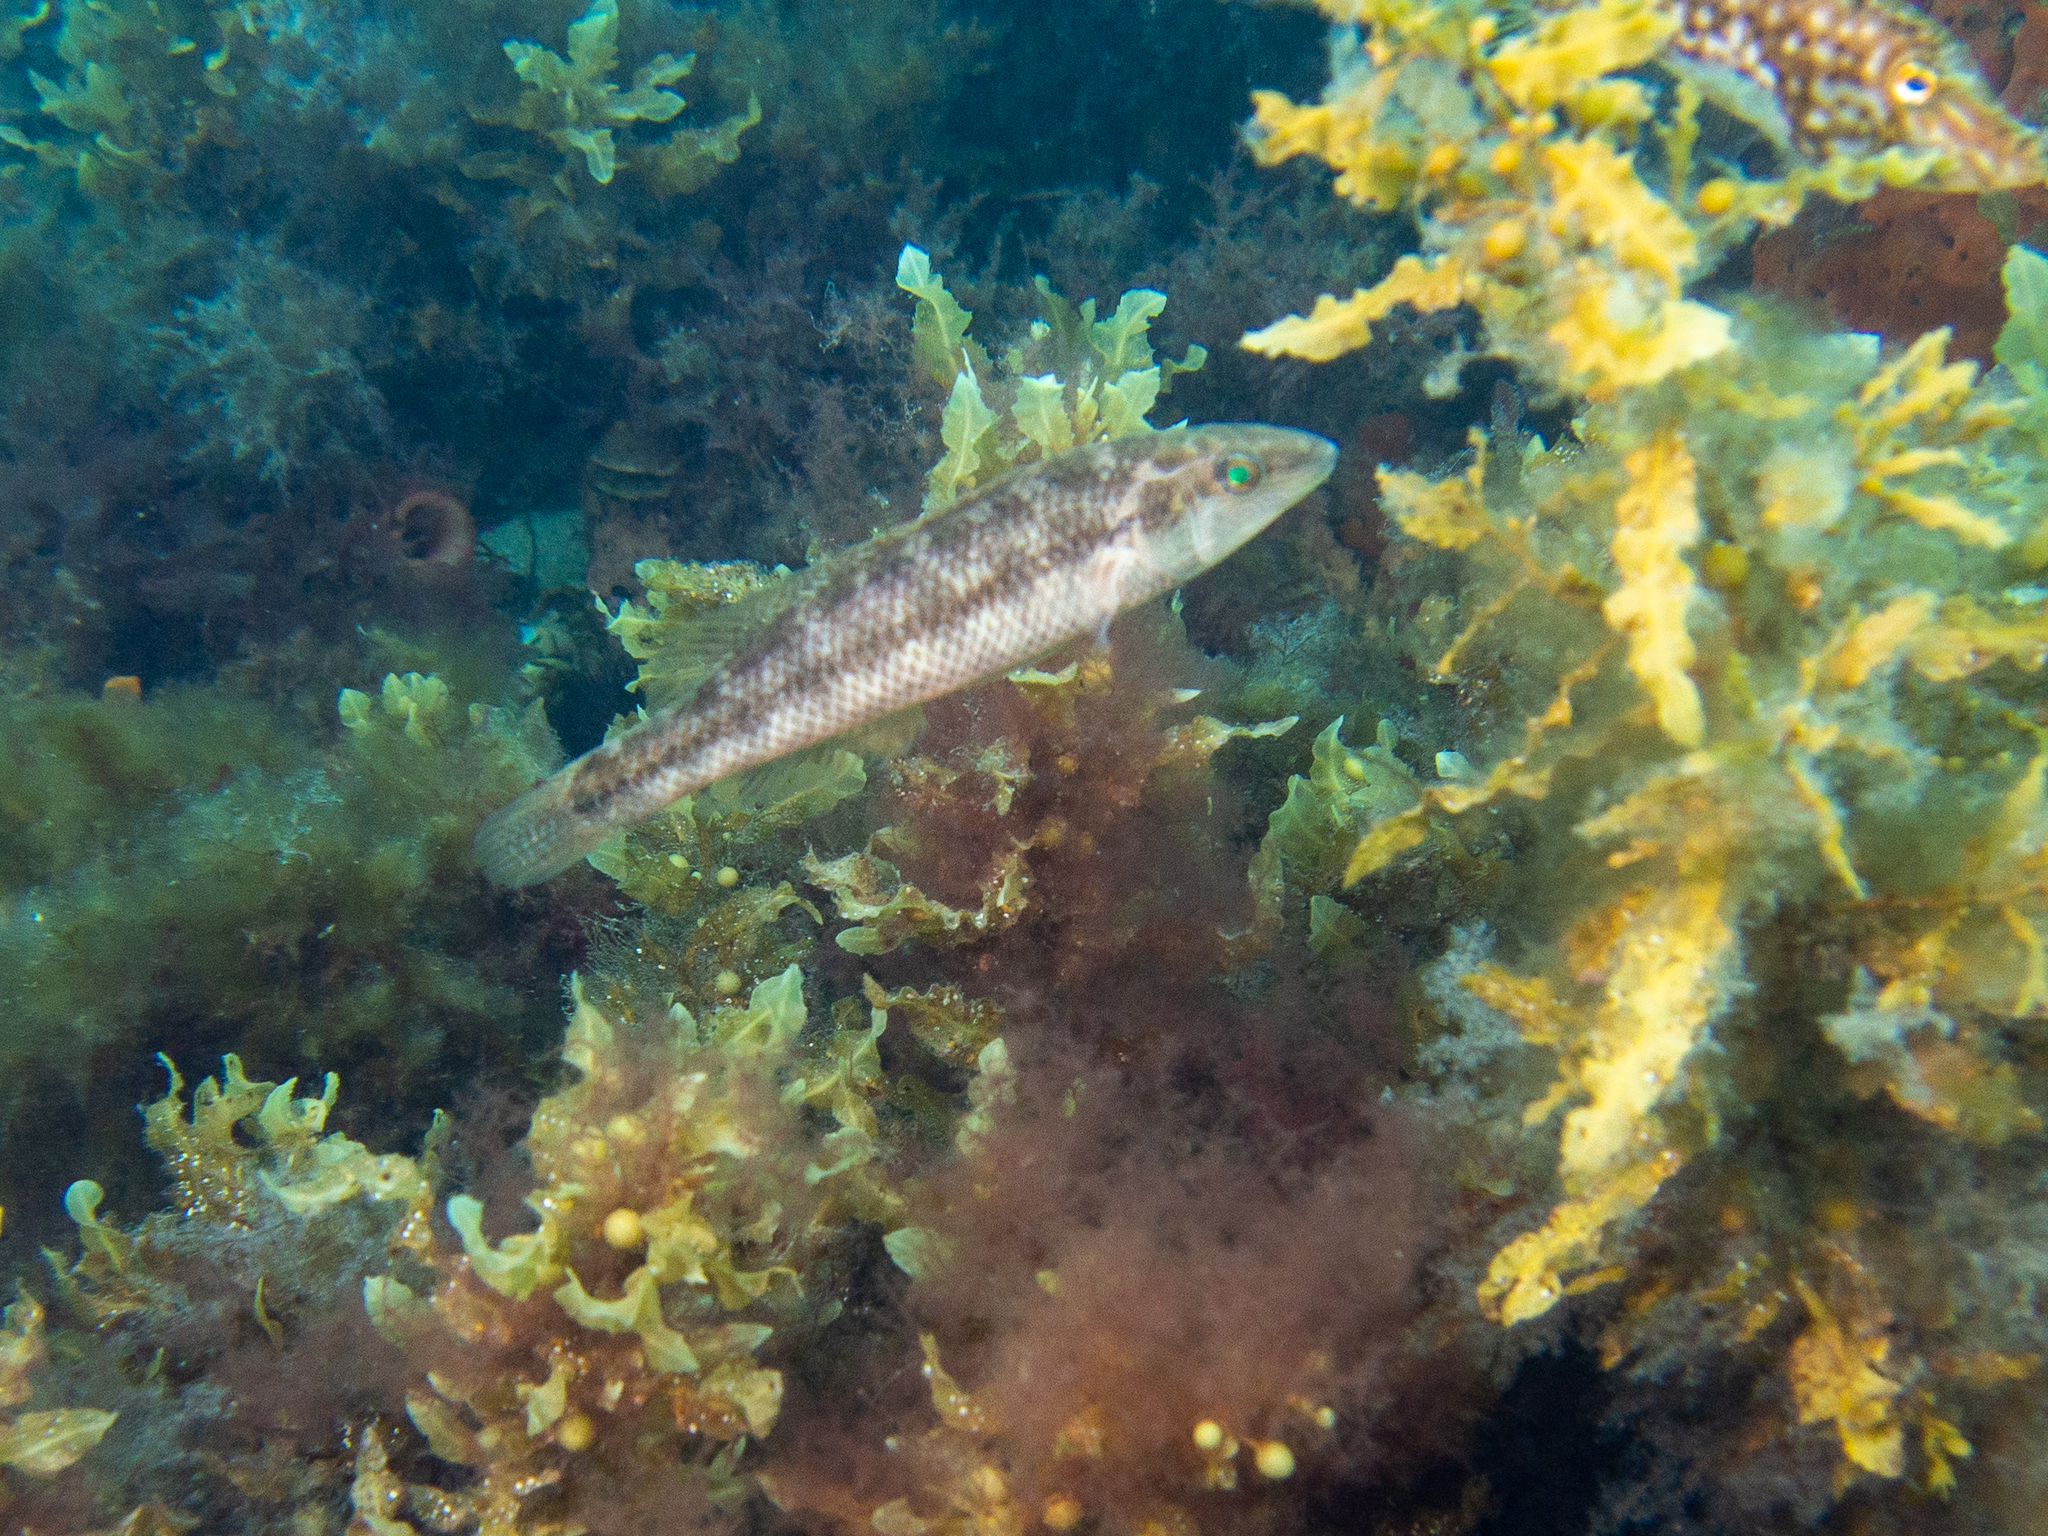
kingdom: Animalia
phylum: Chordata
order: Perciformes
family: Odacidae
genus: Neoodax
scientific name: Neoodax balteatus
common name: Ground mullet
